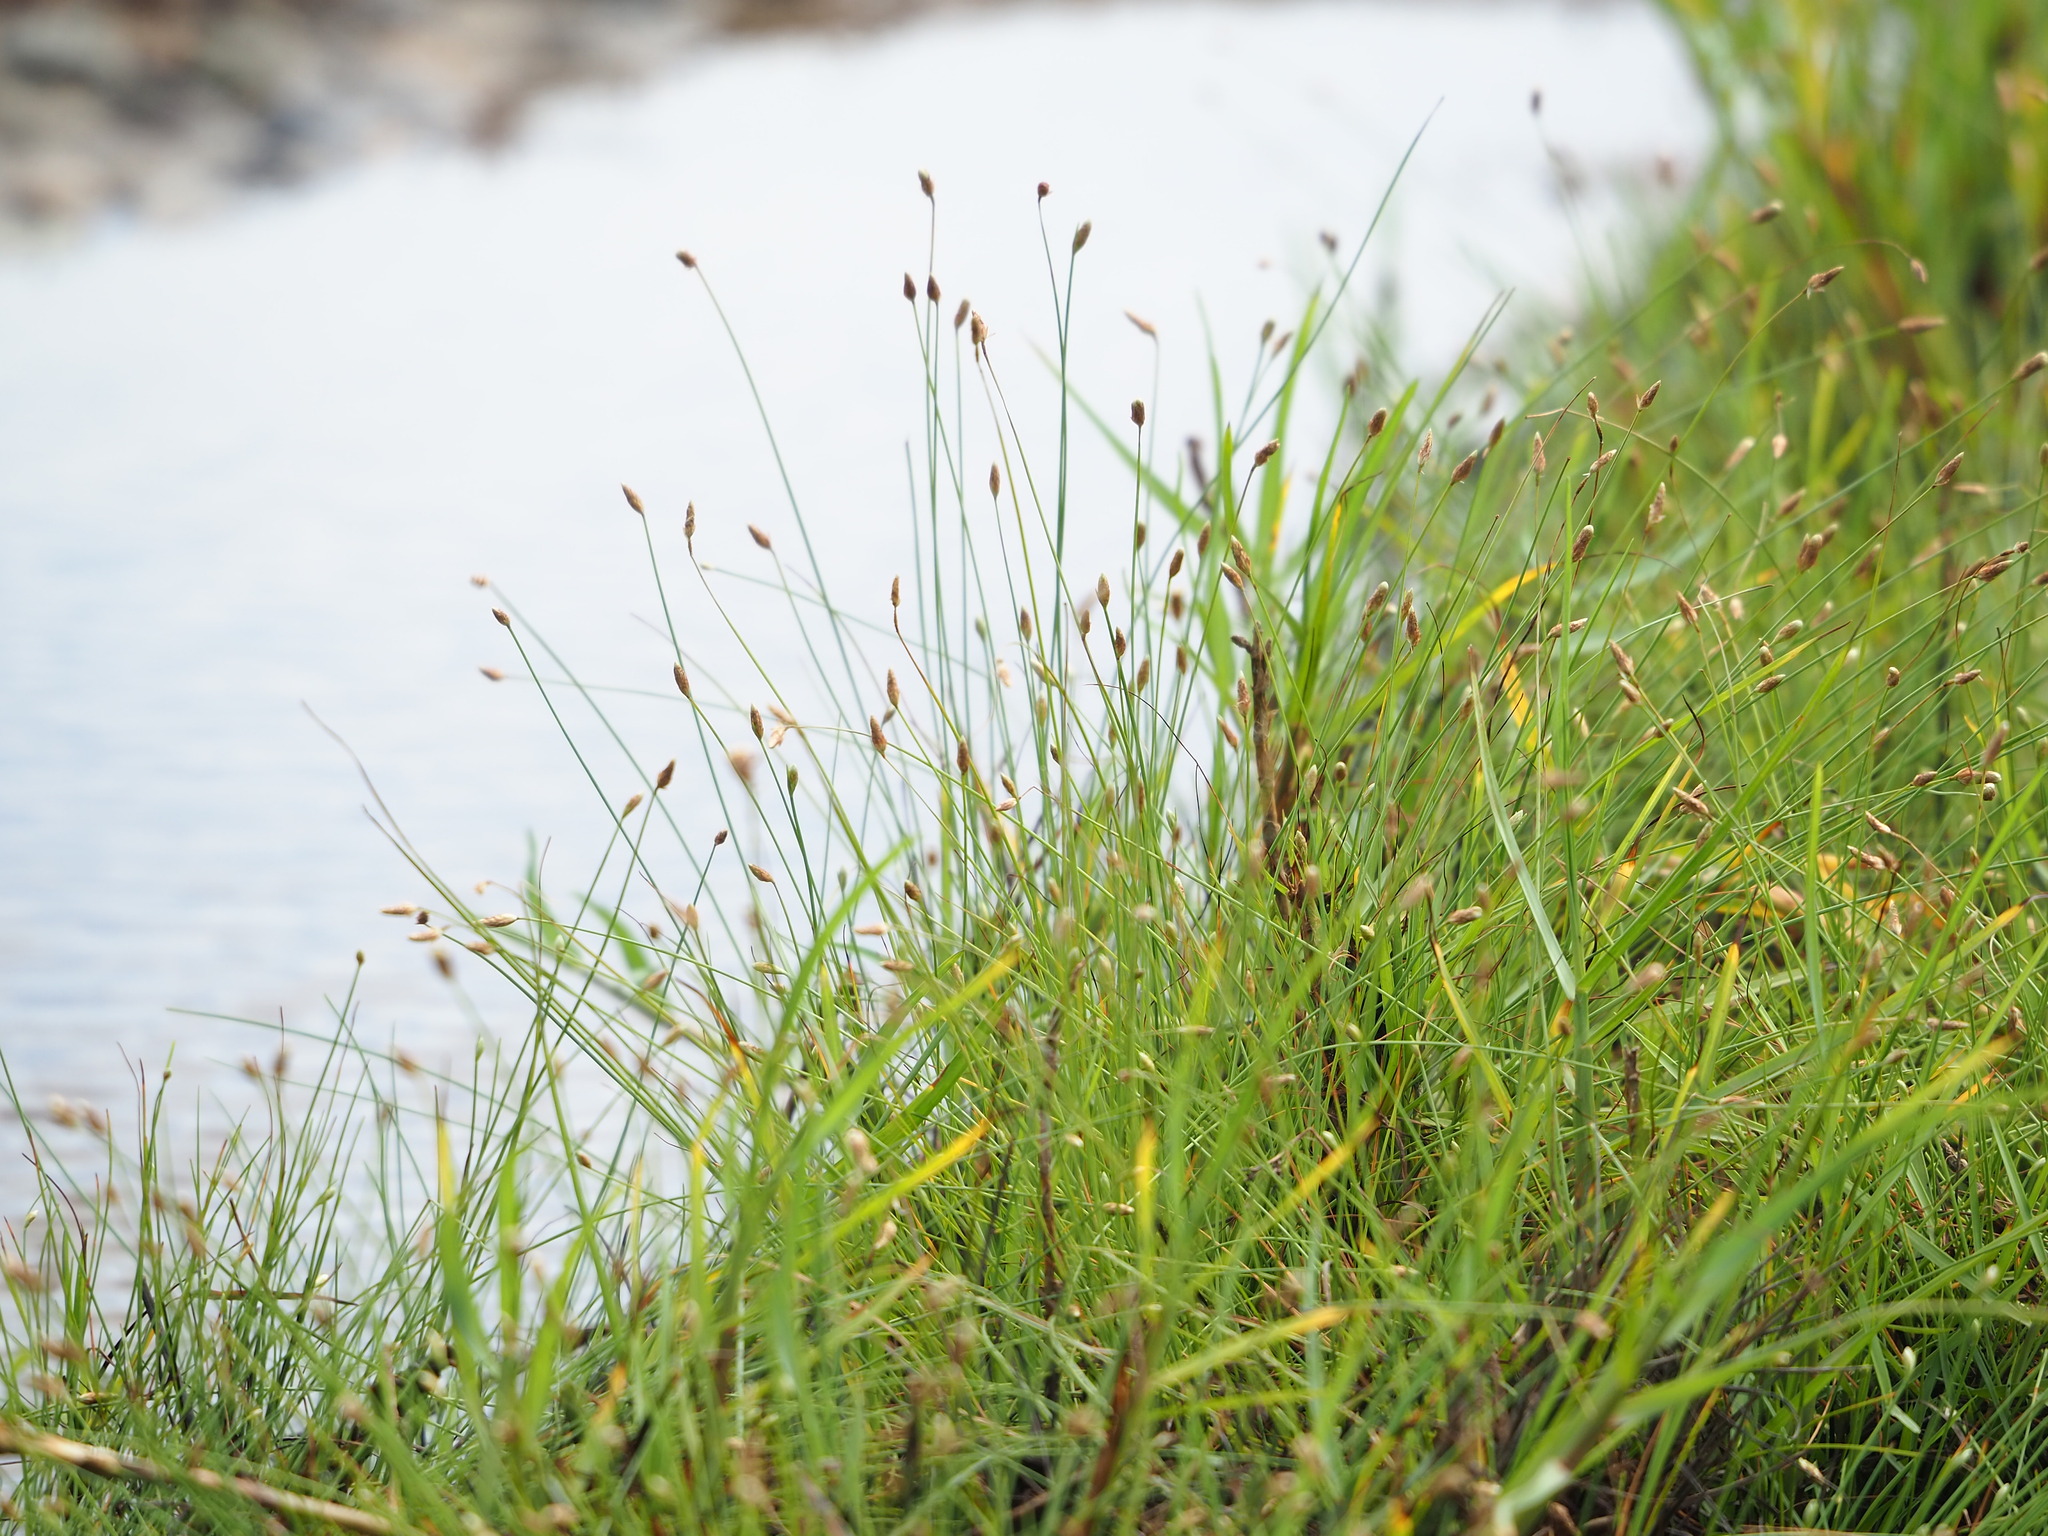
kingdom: Plantae
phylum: Tracheophyta
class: Liliopsida
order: Poales
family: Cyperaceae
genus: Fimbristylis
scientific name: Fimbristylis polytrichoides
